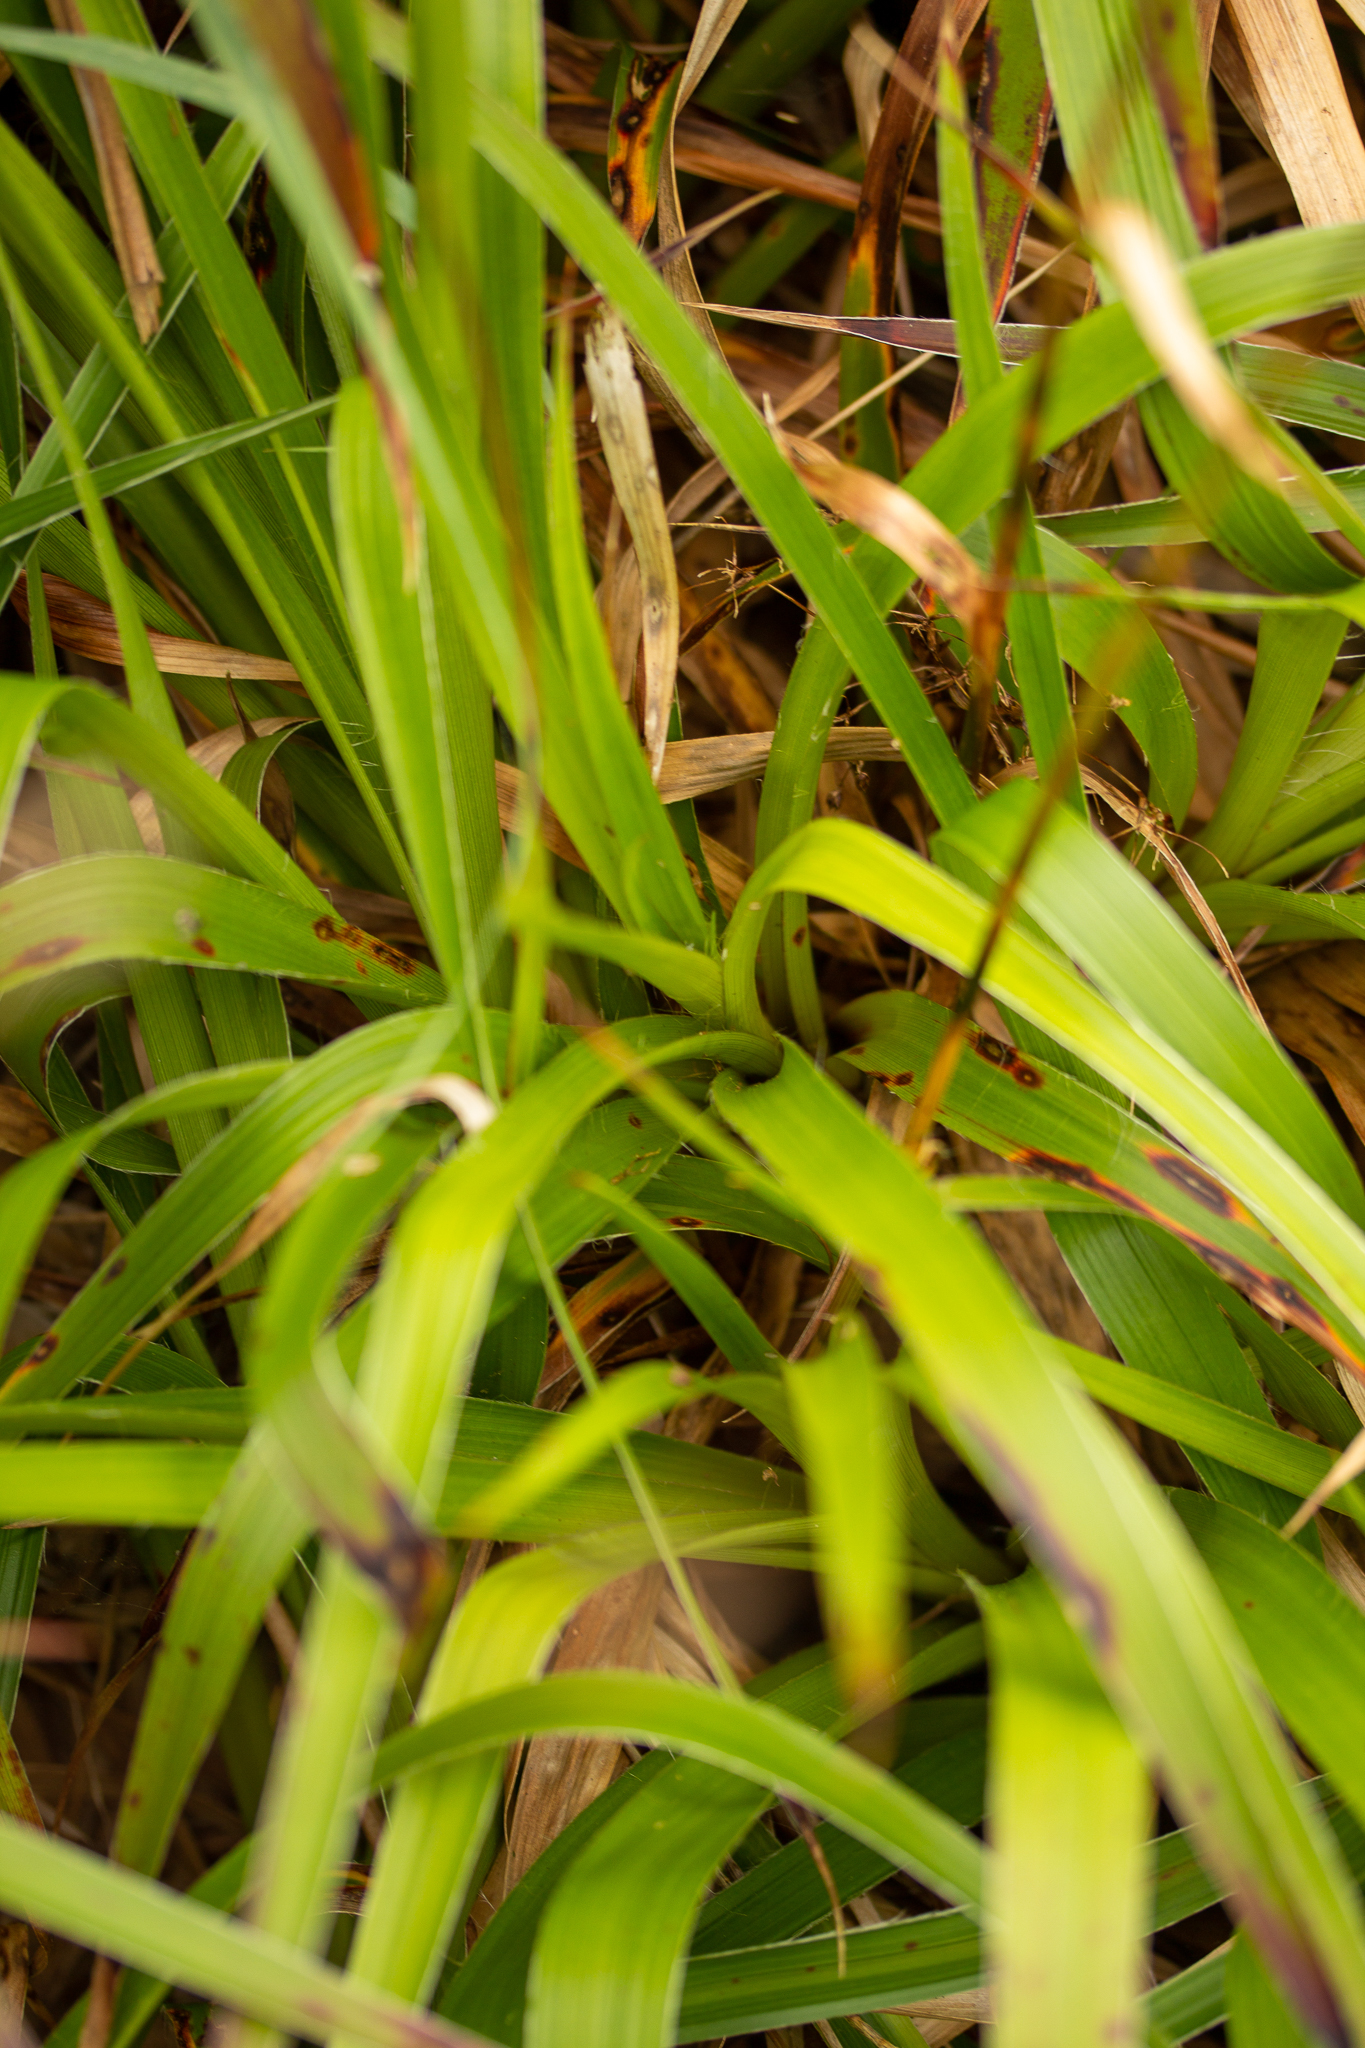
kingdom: Plantae
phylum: Tracheophyta
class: Liliopsida
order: Poales
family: Juncaceae
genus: Luzula
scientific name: Luzula sylvatica
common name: Great wood-rush
